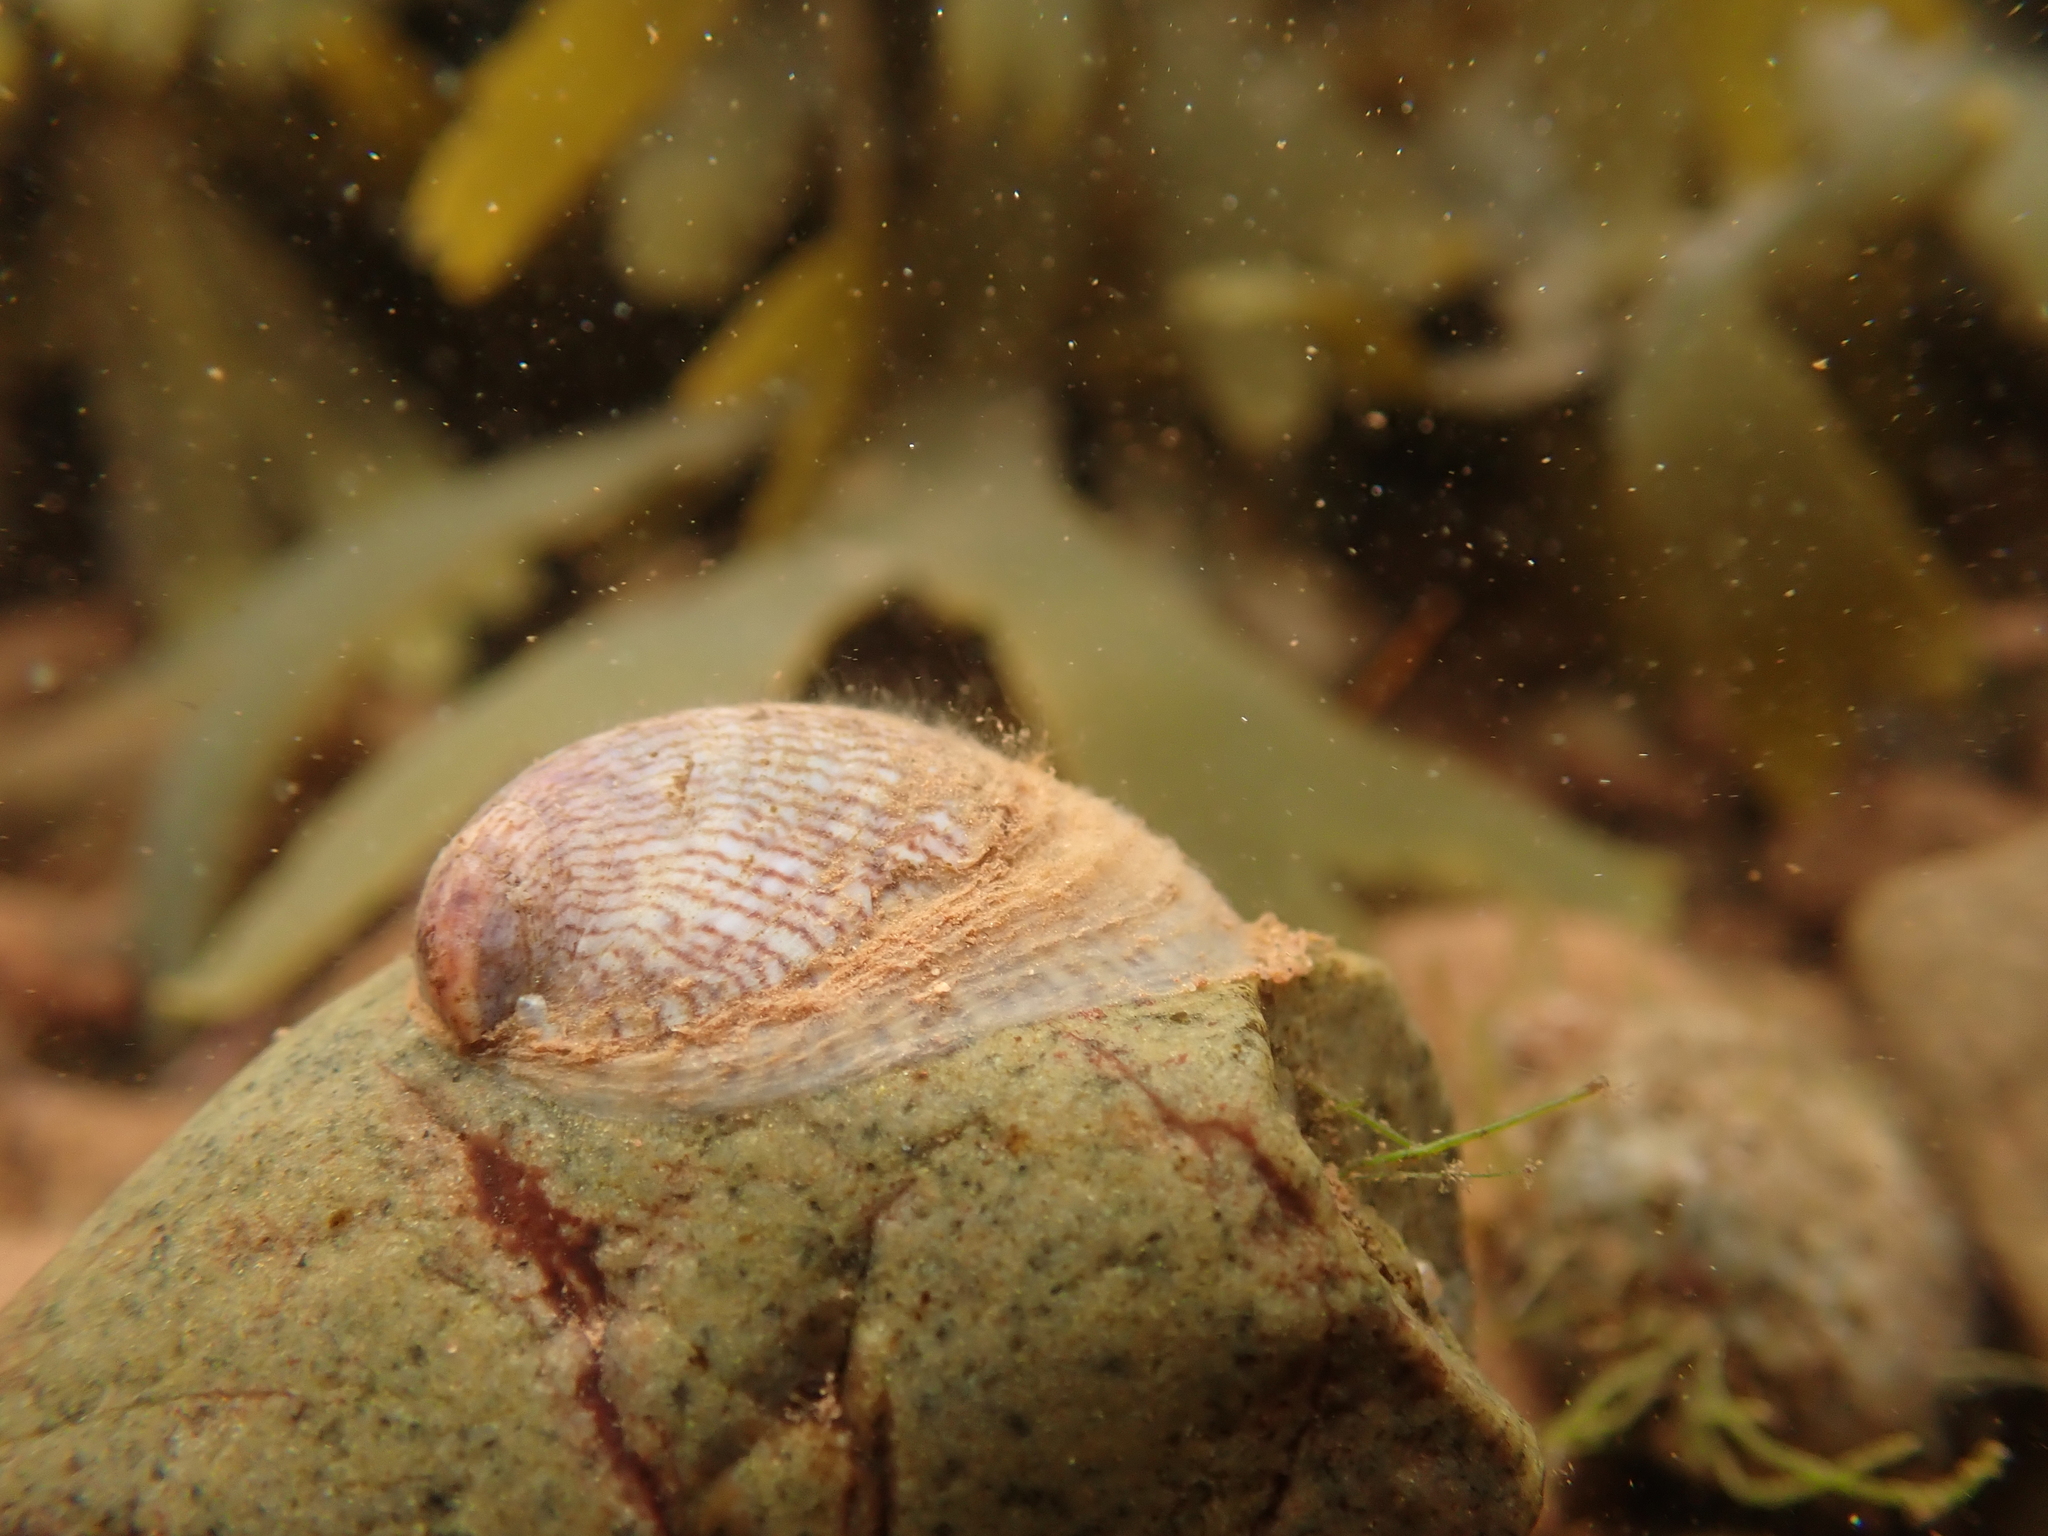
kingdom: Animalia
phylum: Mollusca
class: Gastropoda
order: Littorinimorpha
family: Calyptraeidae
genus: Crepidula
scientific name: Crepidula fornicata
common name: Slipper limpet
